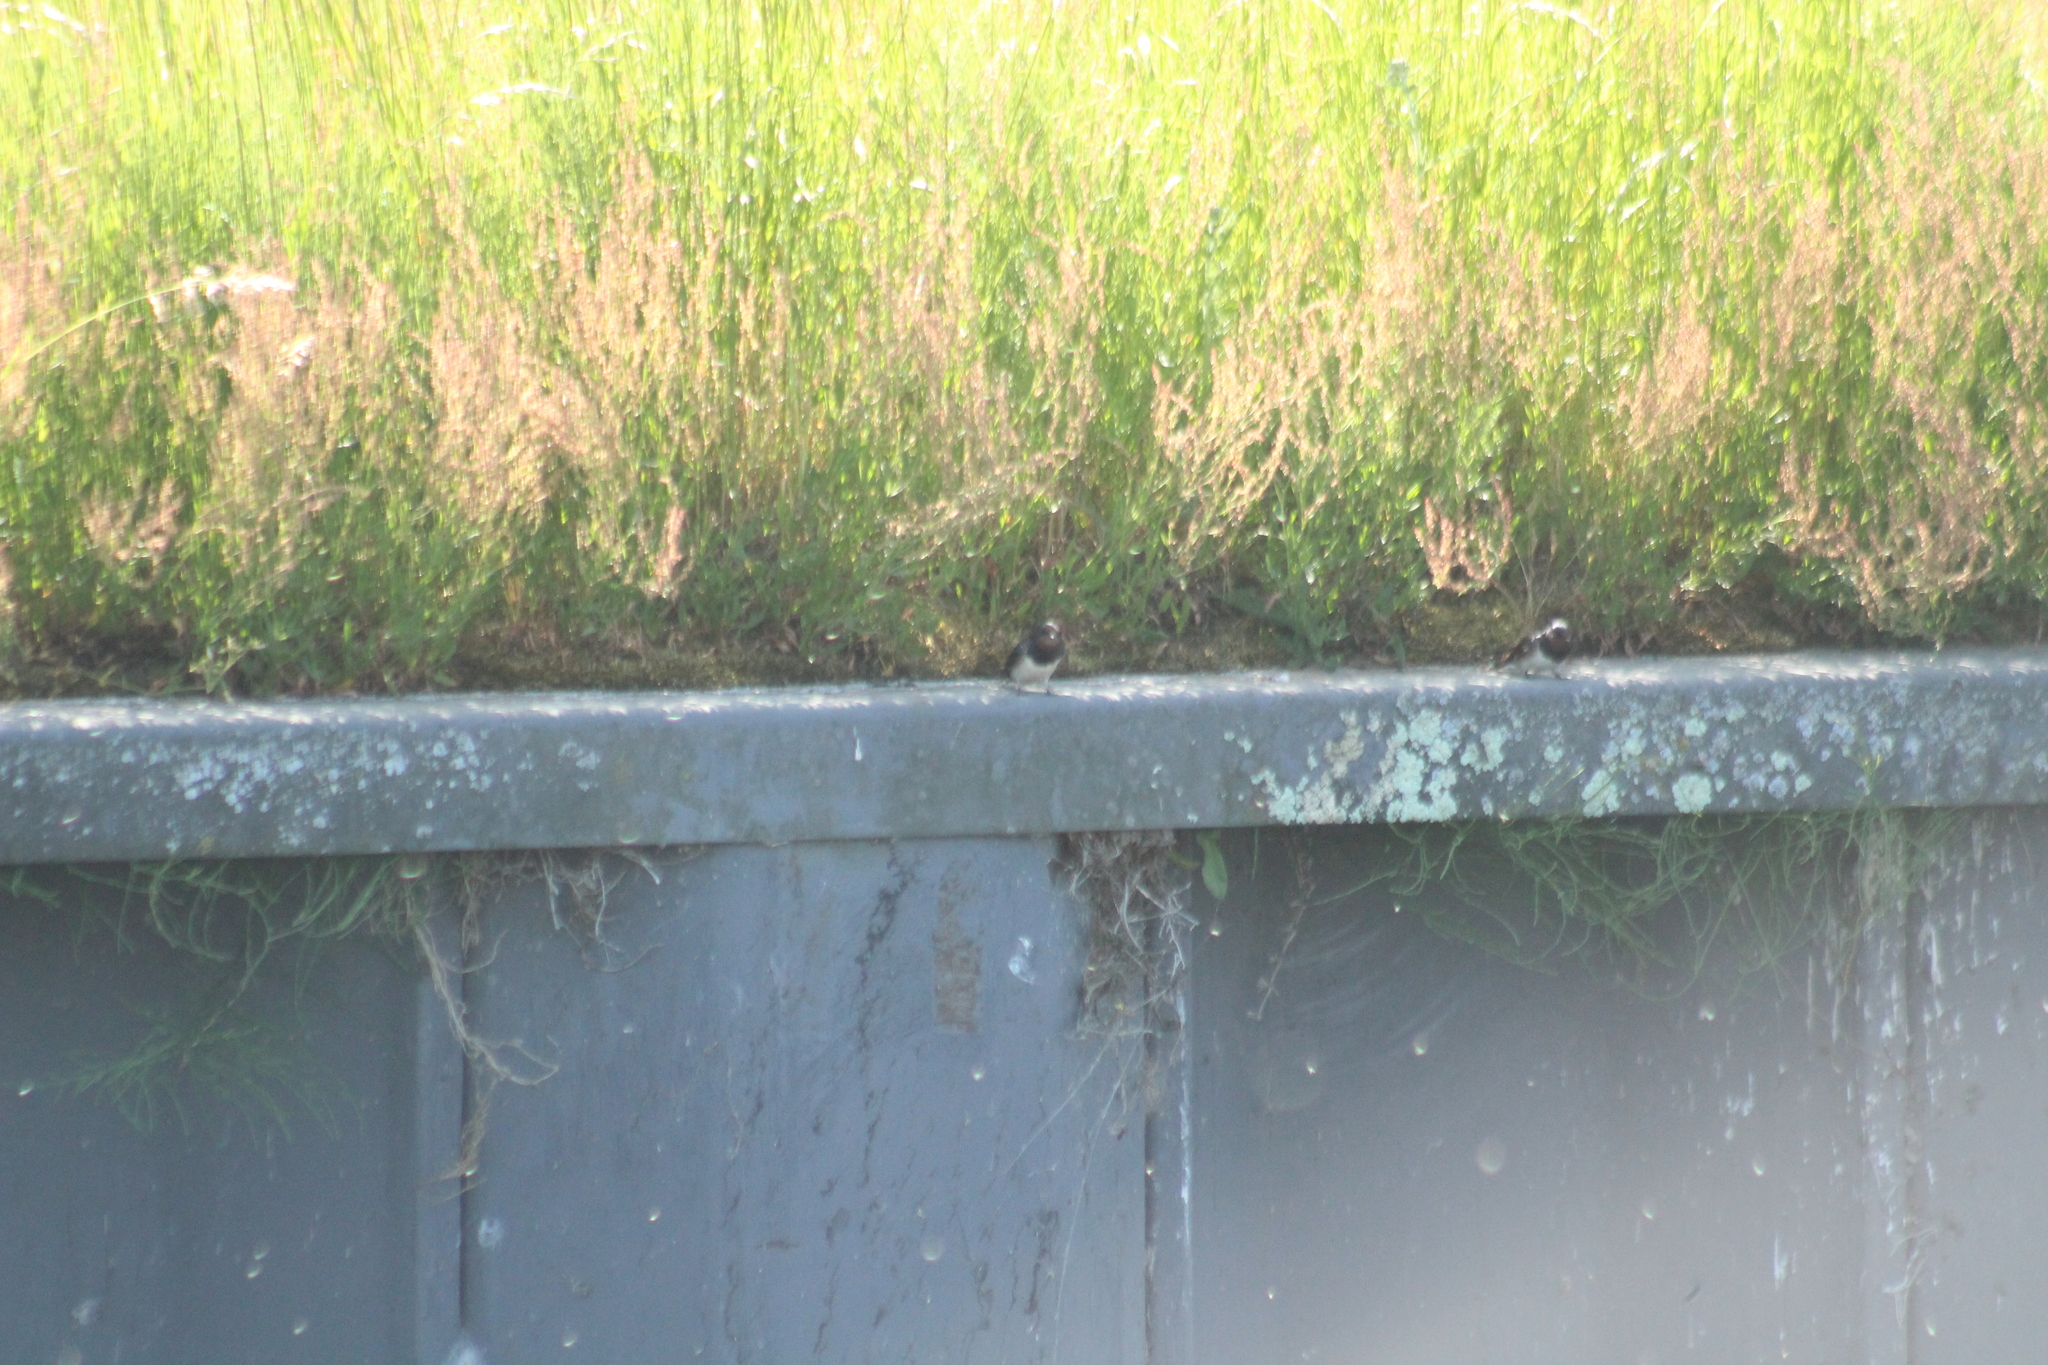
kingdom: Animalia
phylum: Chordata
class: Aves
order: Passeriformes
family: Hirundinidae
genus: Hirundo
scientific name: Hirundo rustica
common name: Barn swallow
